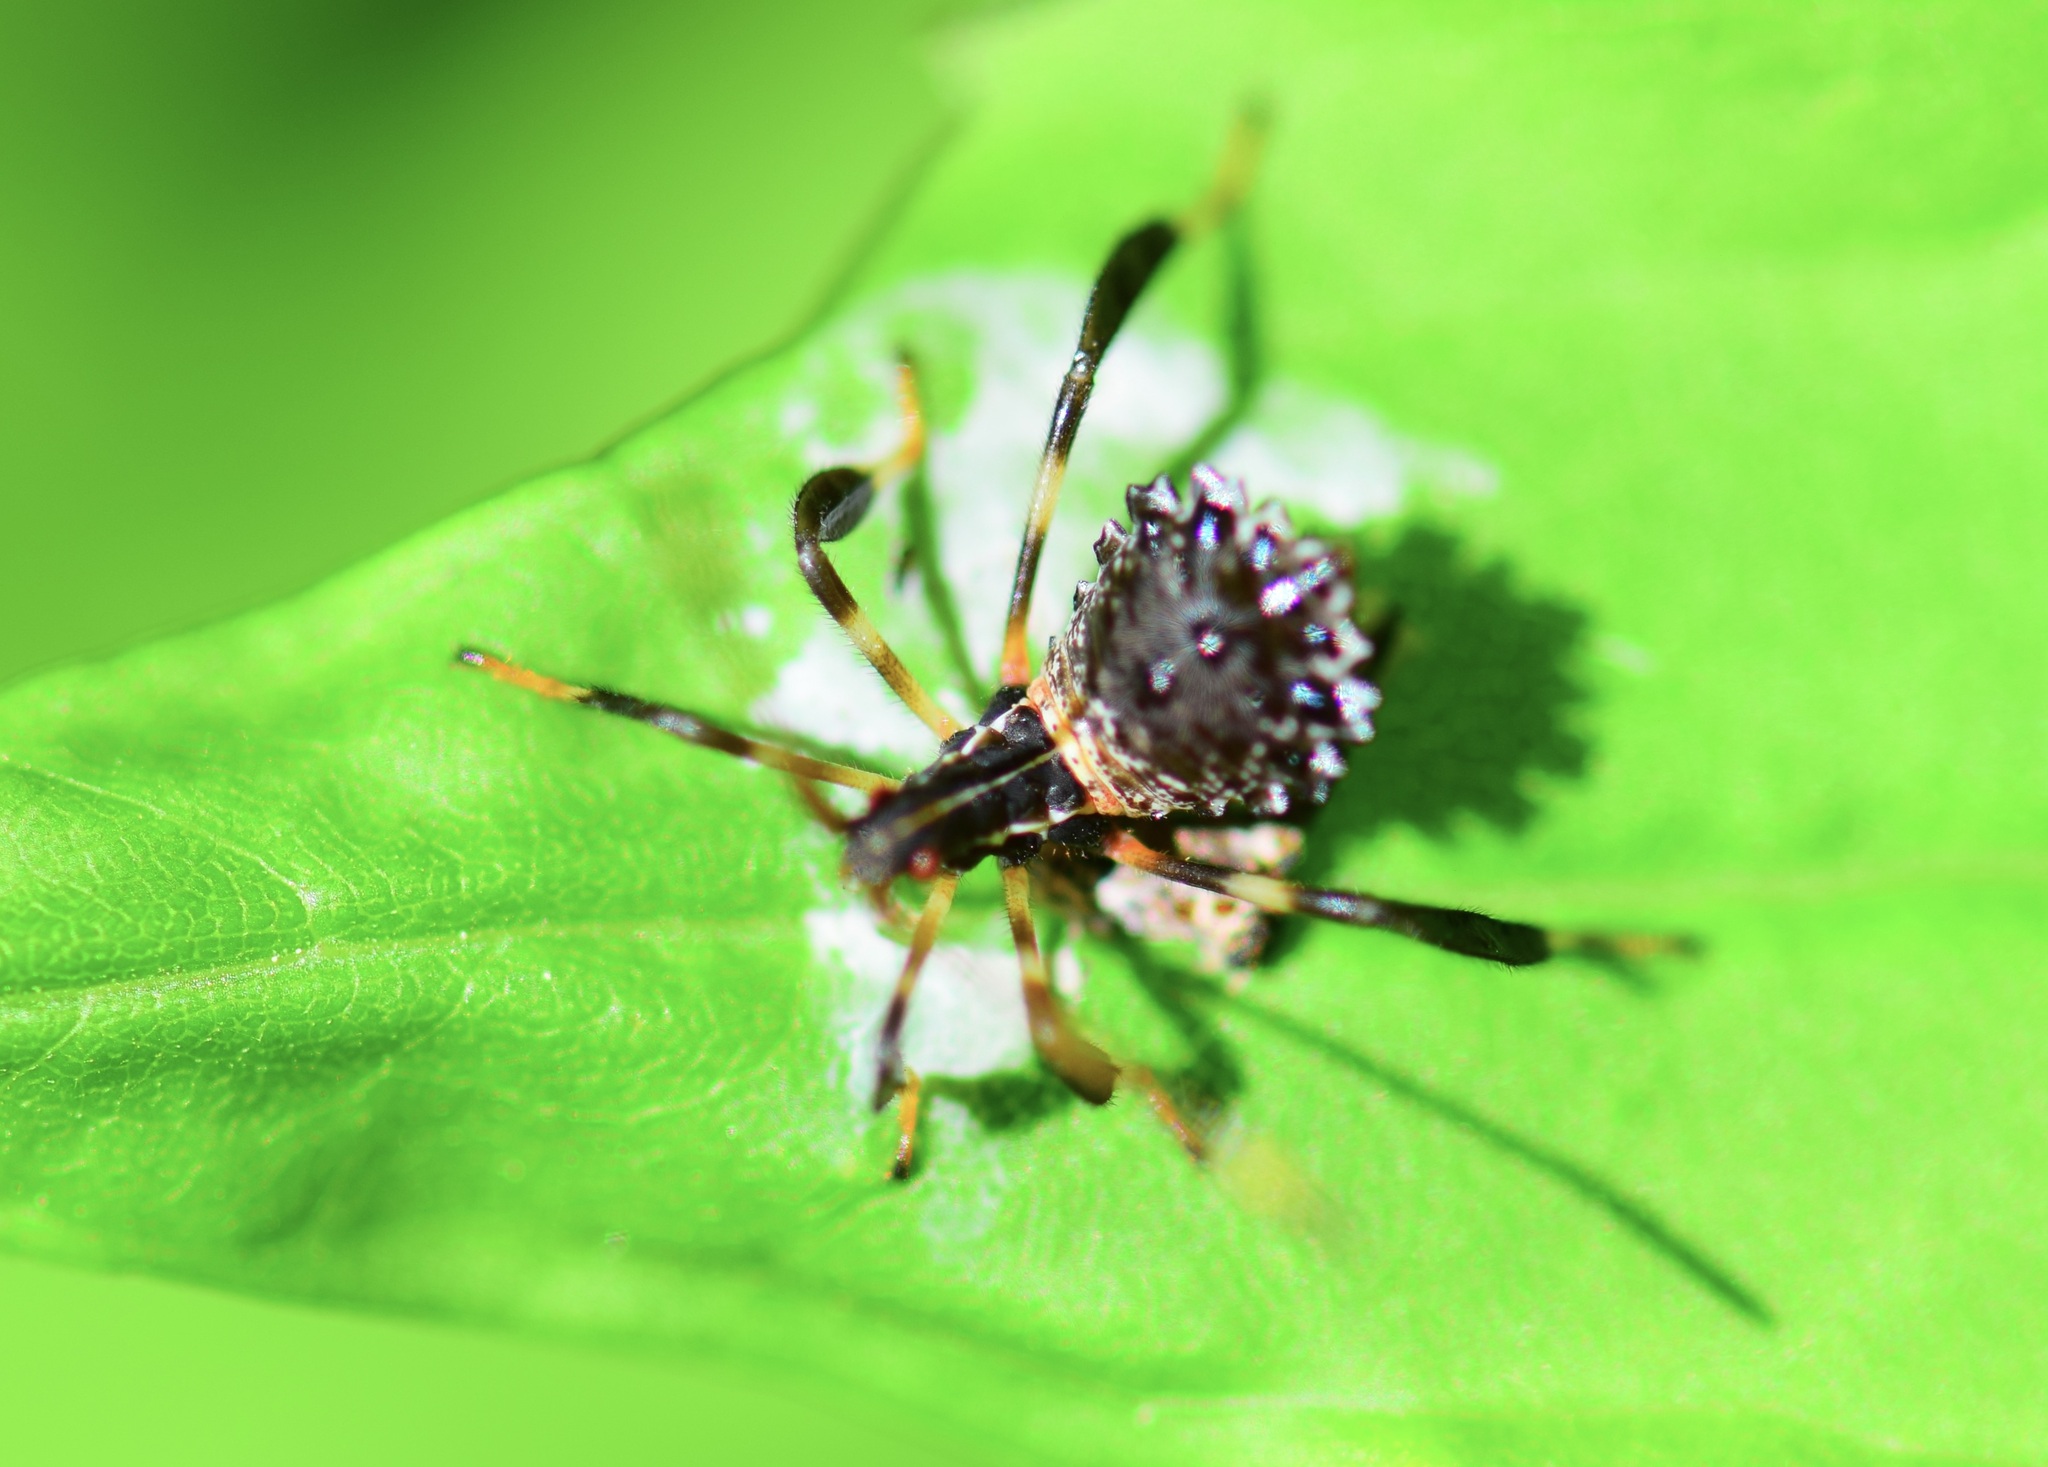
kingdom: Animalia
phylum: Arthropoda
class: Insecta
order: Hemiptera
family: Coreidae
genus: Acanthocephala
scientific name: Acanthocephala terminalis
